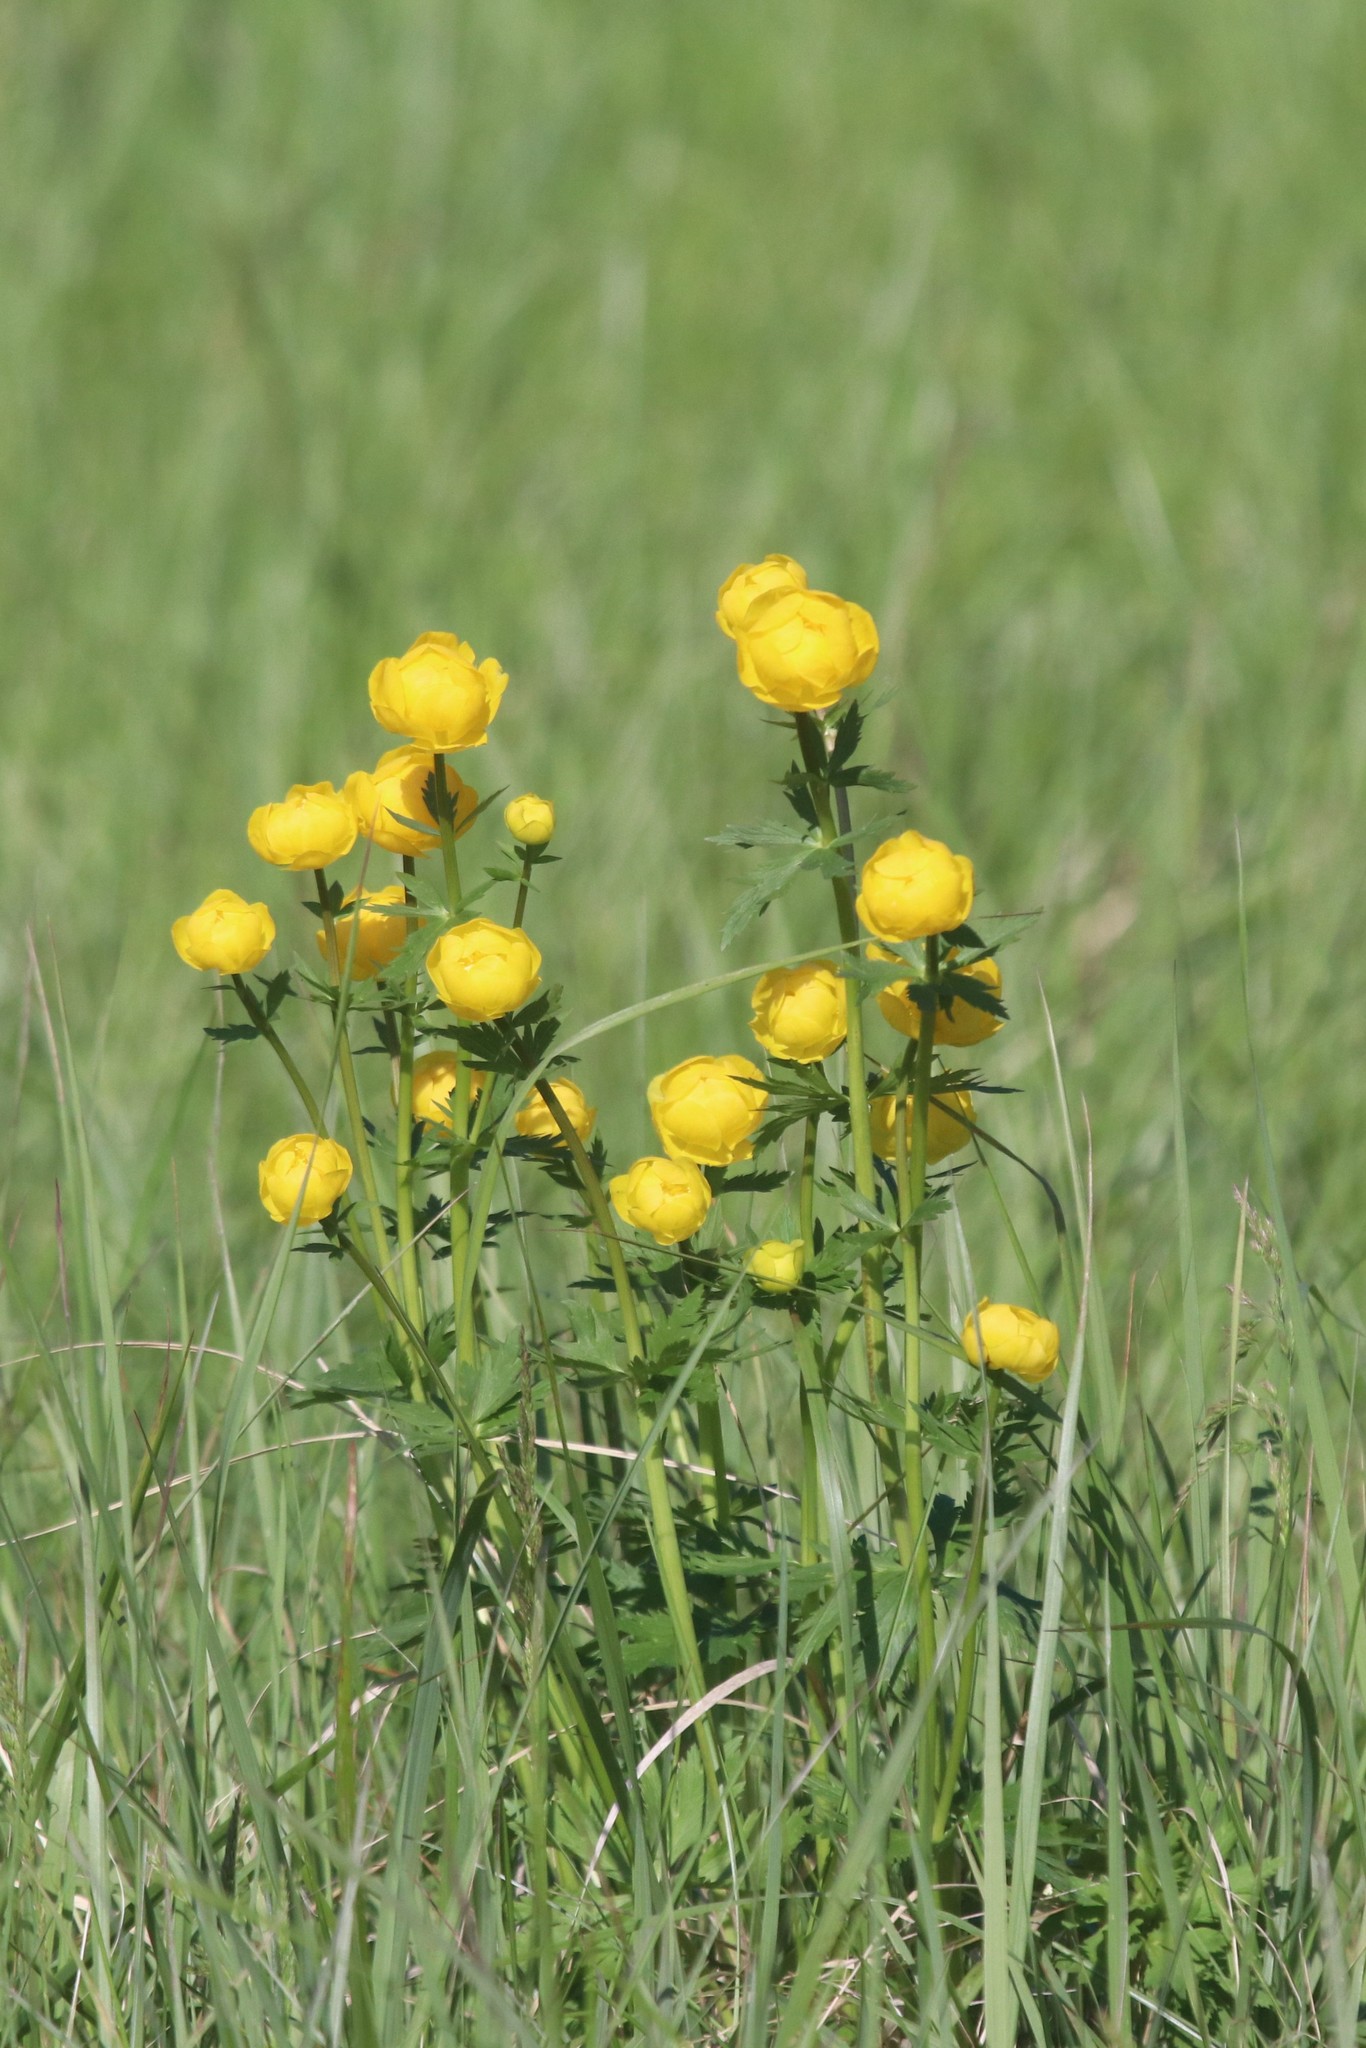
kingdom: Plantae
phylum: Tracheophyta
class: Magnoliopsida
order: Ranunculales
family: Ranunculaceae
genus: Trollius
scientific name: Trollius europaeus
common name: European globeflower
